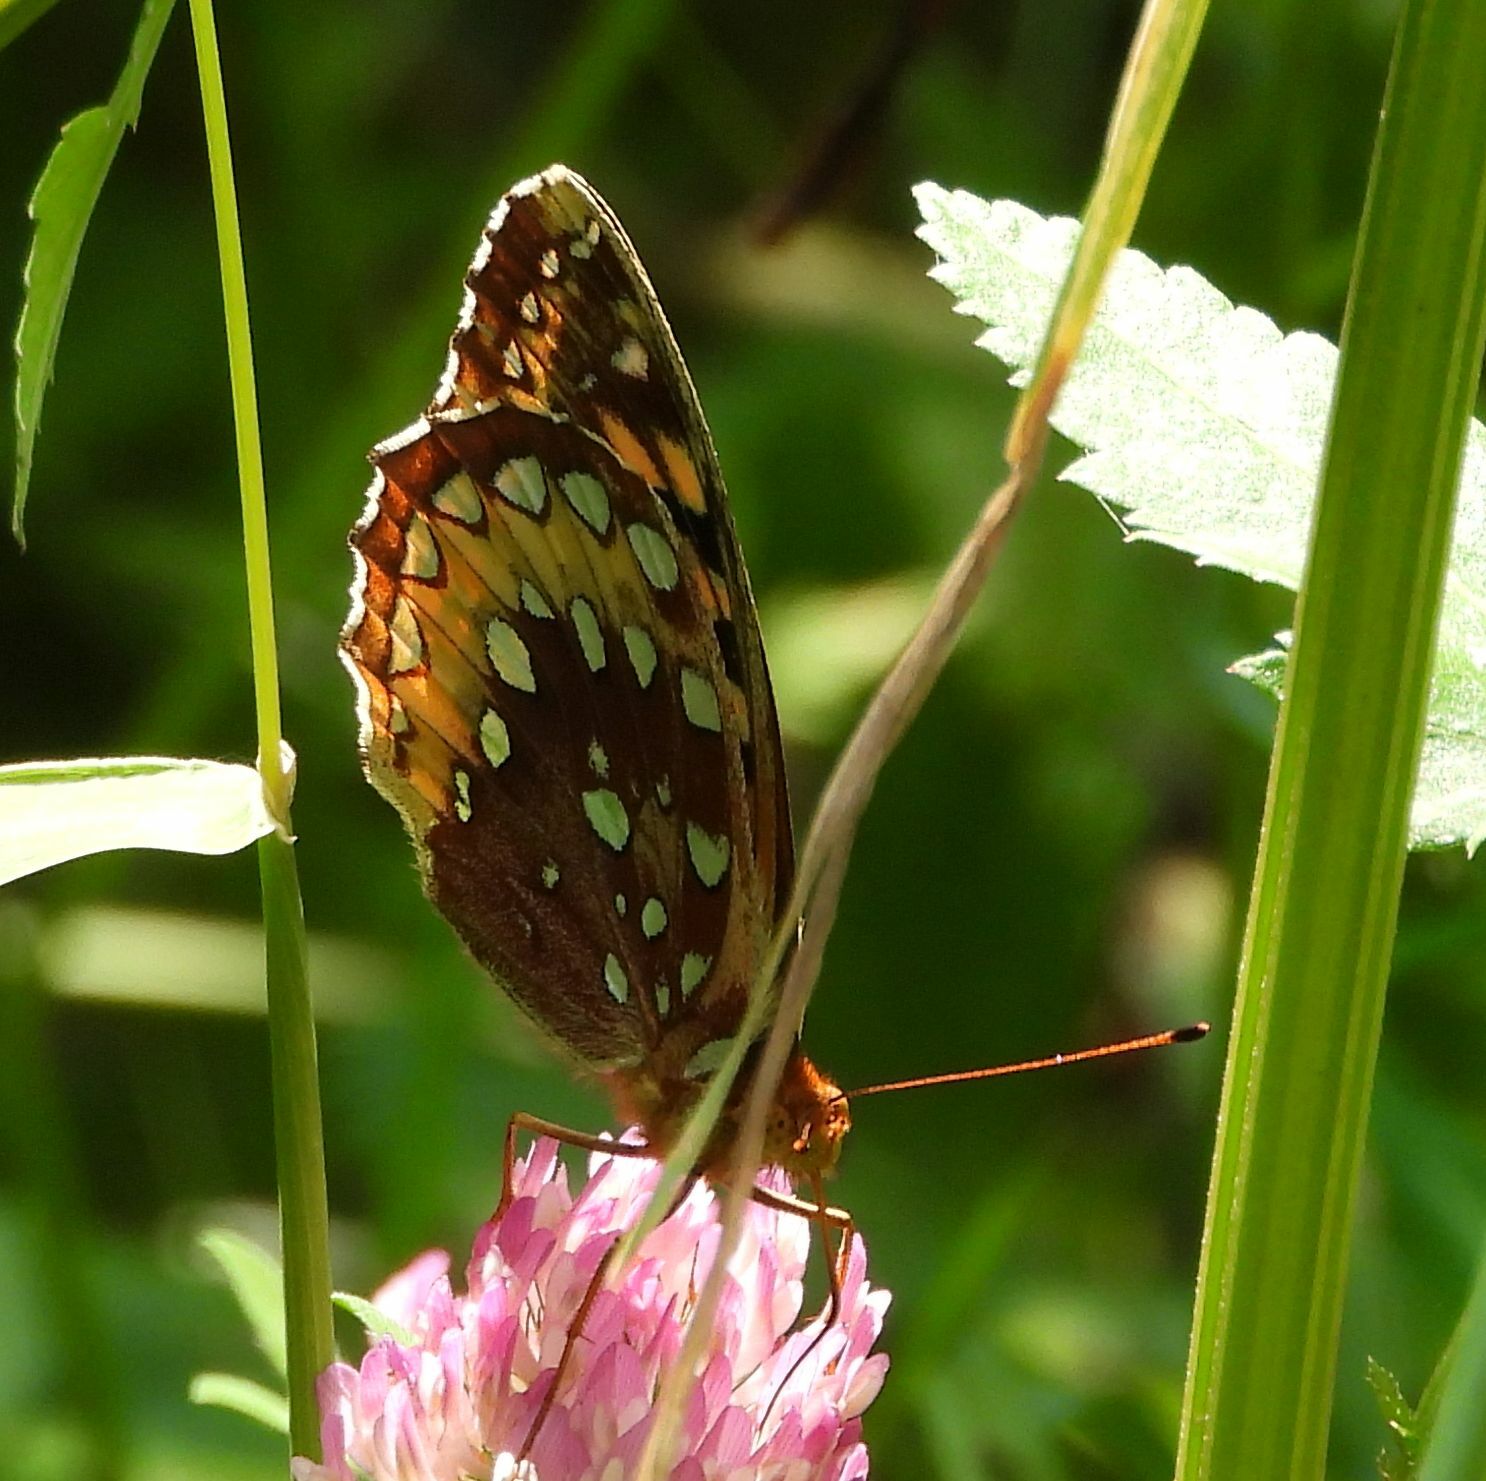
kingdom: Animalia
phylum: Arthropoda
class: Insecta
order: Lepidoptera
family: Nymphalidae
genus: Speyeria
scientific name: Speyeria cybele
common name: Great spangled fritillary
